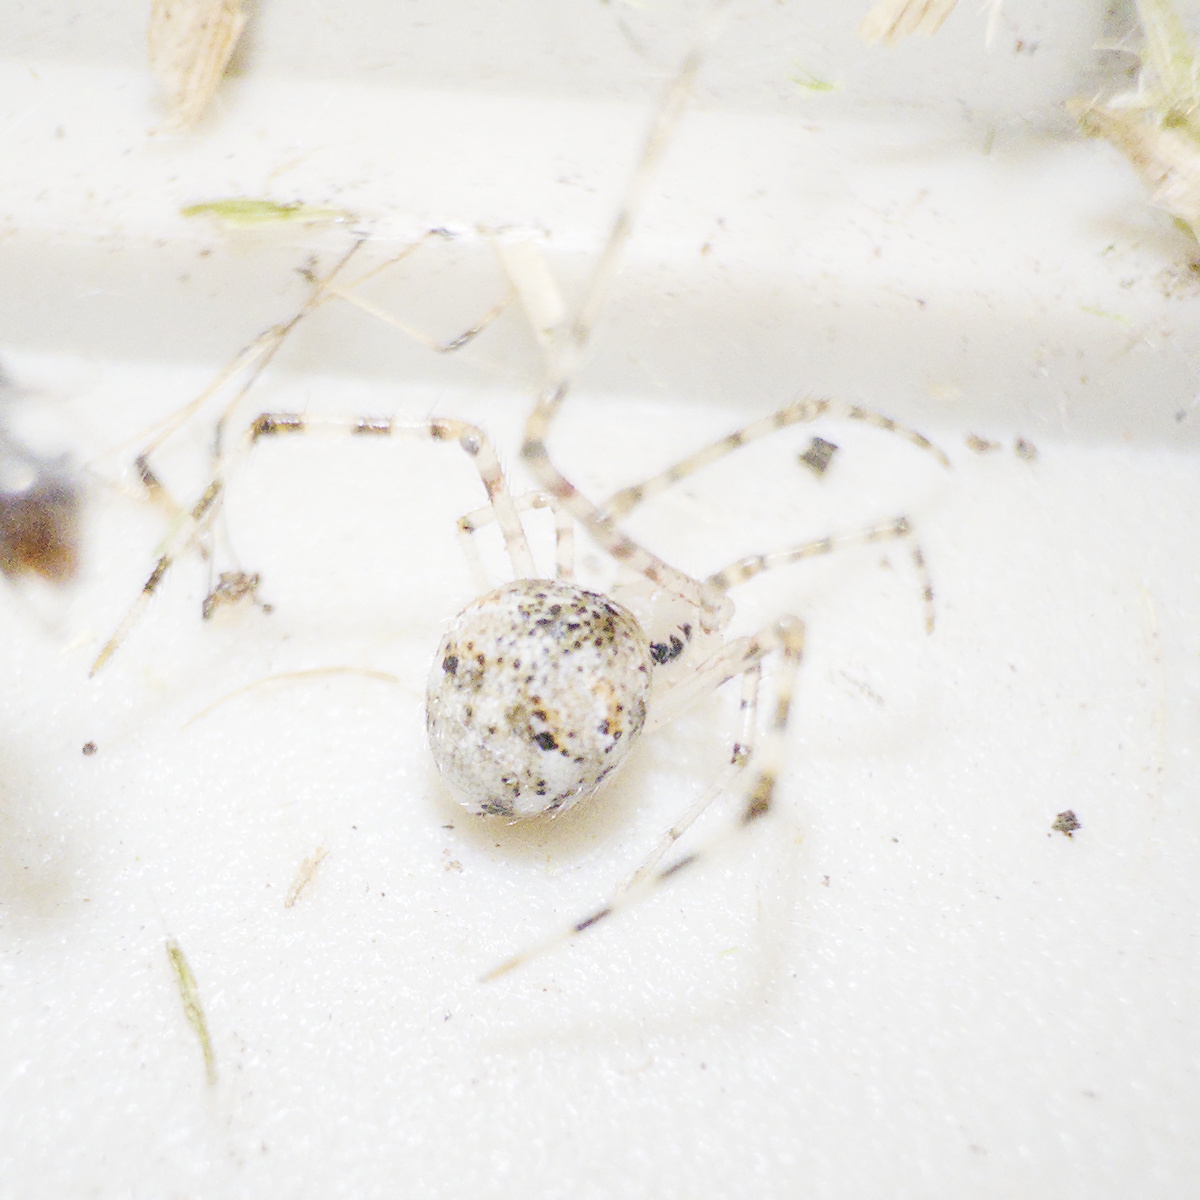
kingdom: Animalia
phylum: Arthropoda
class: Arachnida
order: Araneae
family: Theridiidae
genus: Cryptachaea
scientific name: Cryptachaea gigantipes
